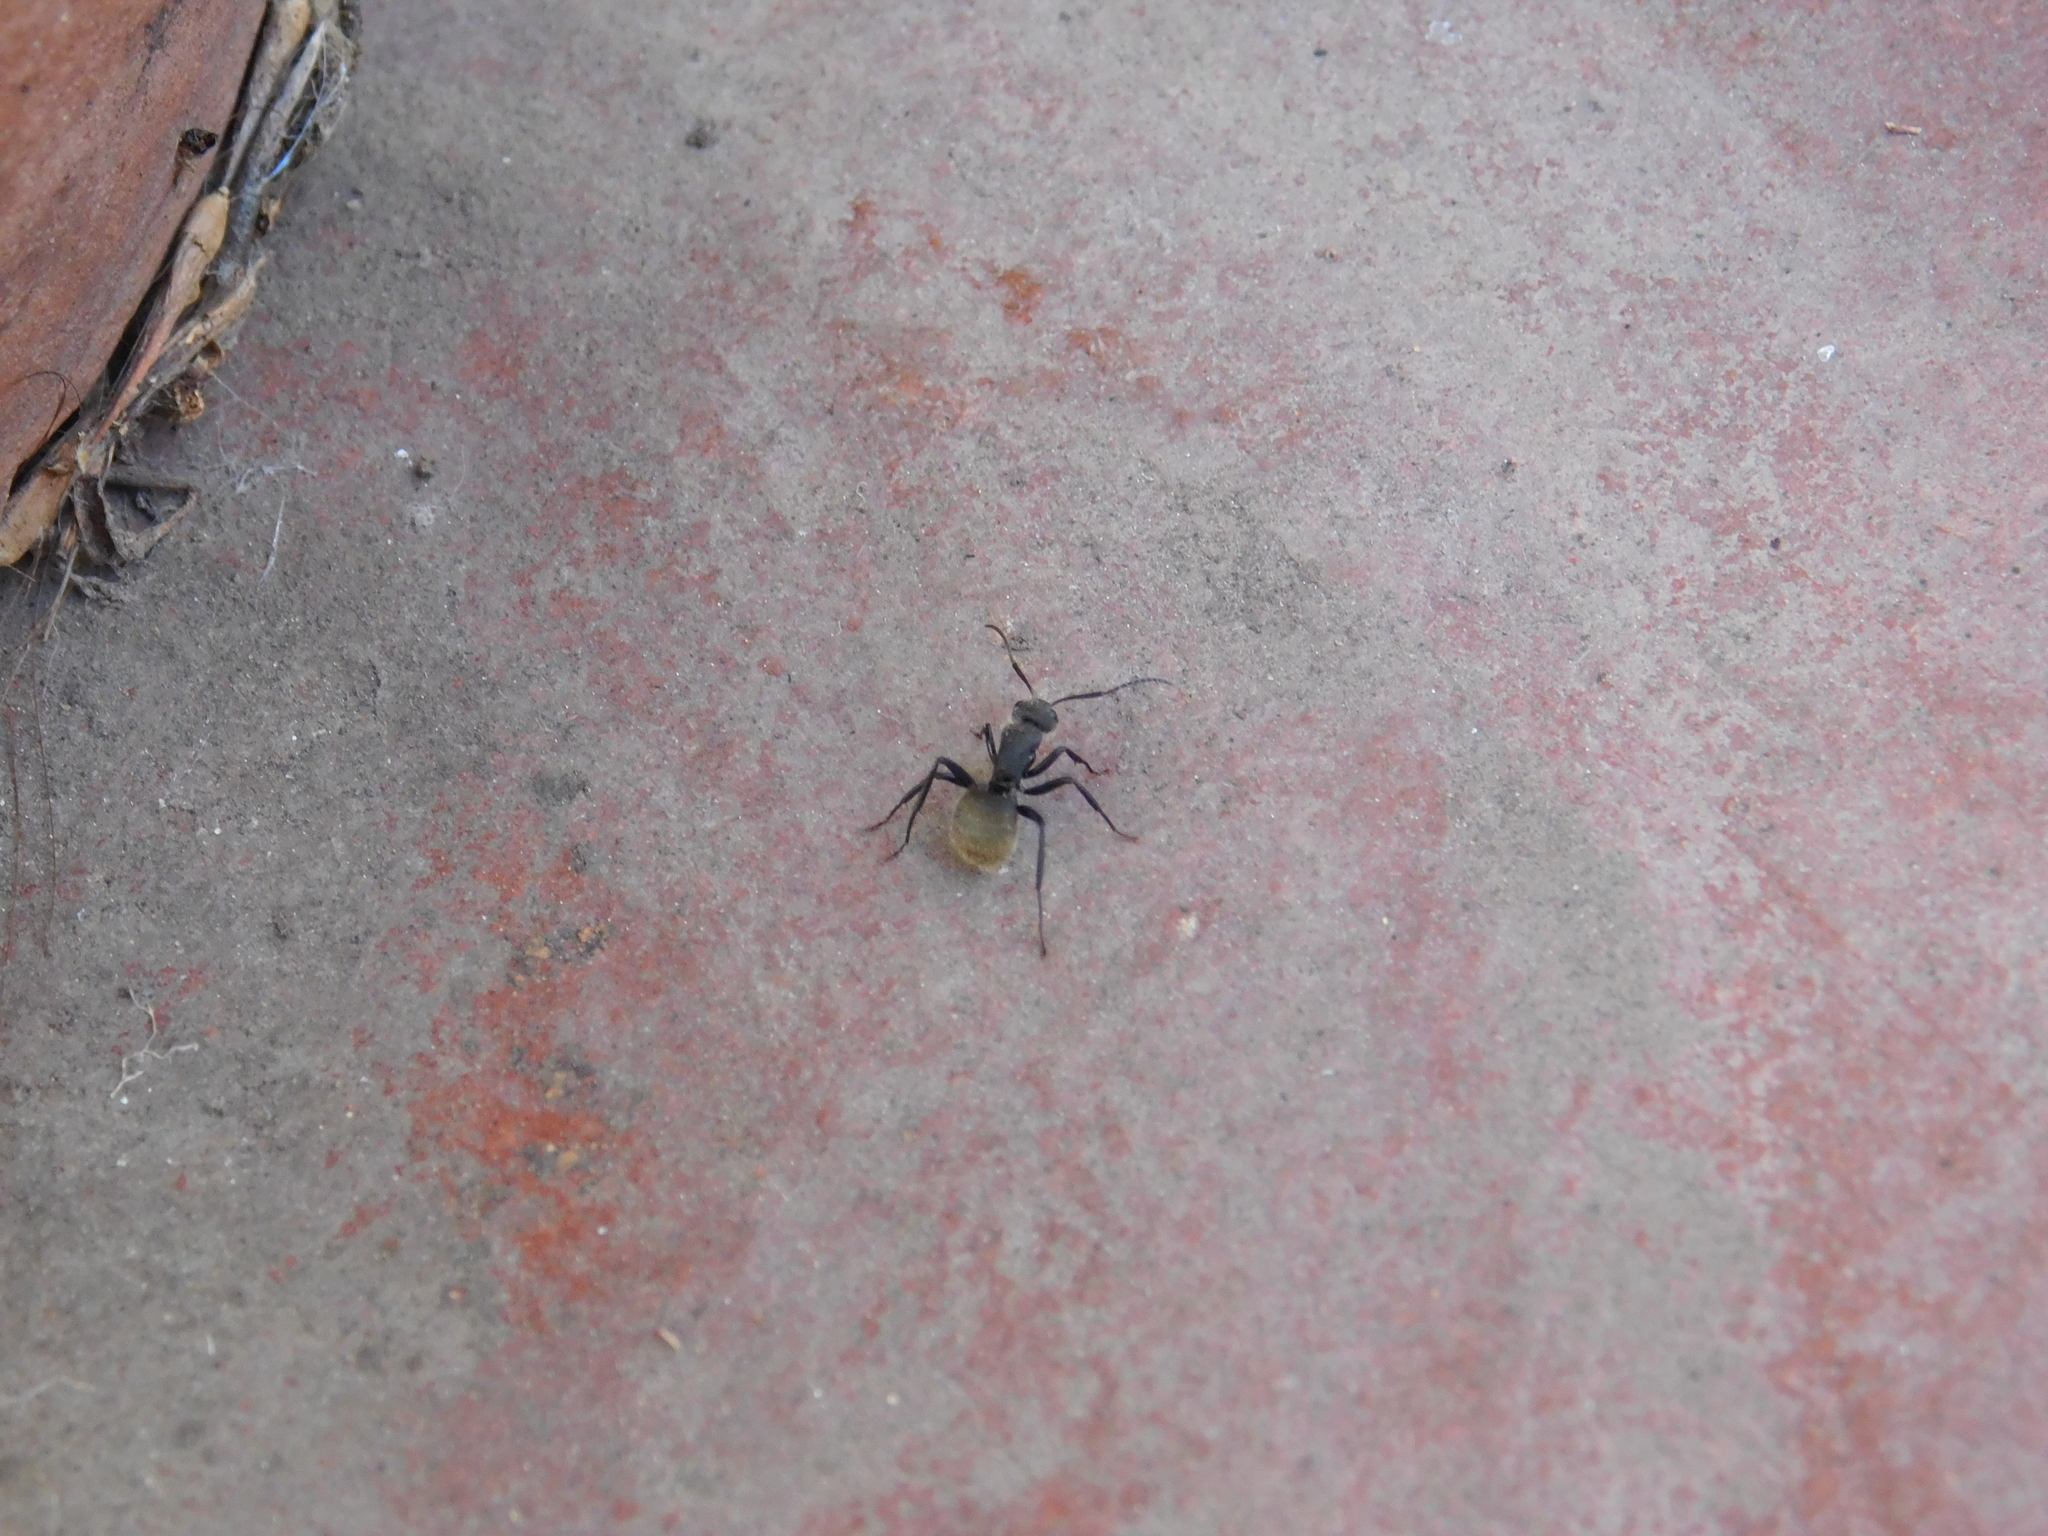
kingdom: Animalia
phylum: Arthropoda
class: Insecta
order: Hymenoptera
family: Formicidae
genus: Camponotus
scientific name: Camponotus mus
